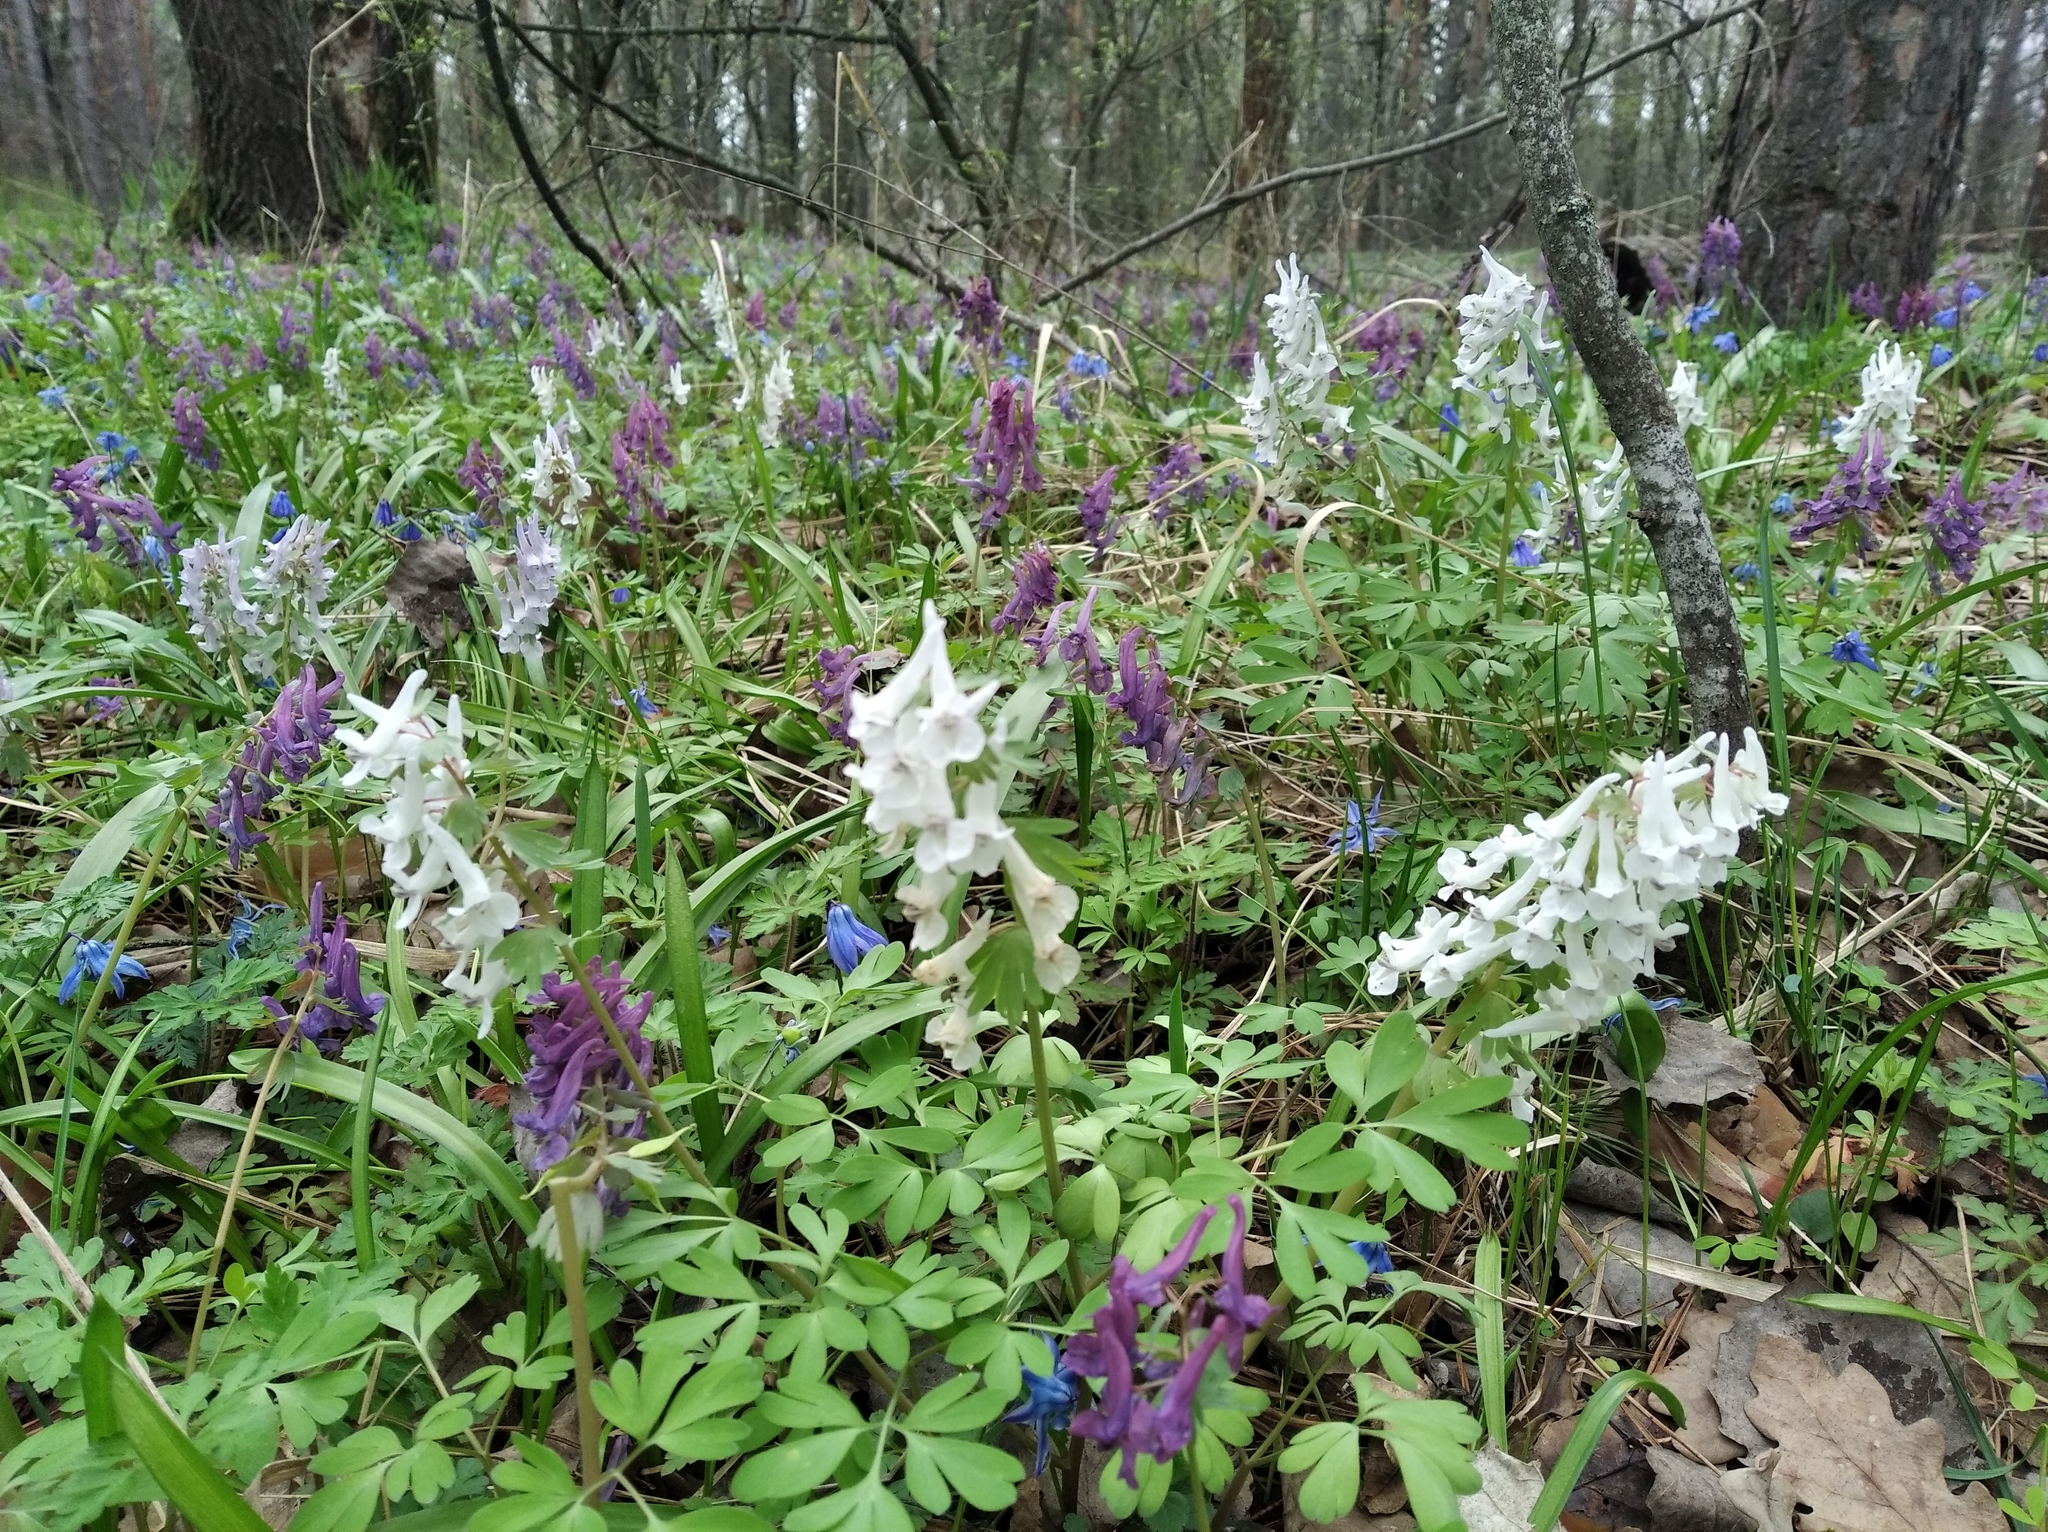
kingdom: Plantae
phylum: Tracheophyta
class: Magnoliopsida
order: Ranunculales
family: Papaveraceae
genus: Corydalis
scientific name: Corydalis solida
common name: Bird-in-a-bush
